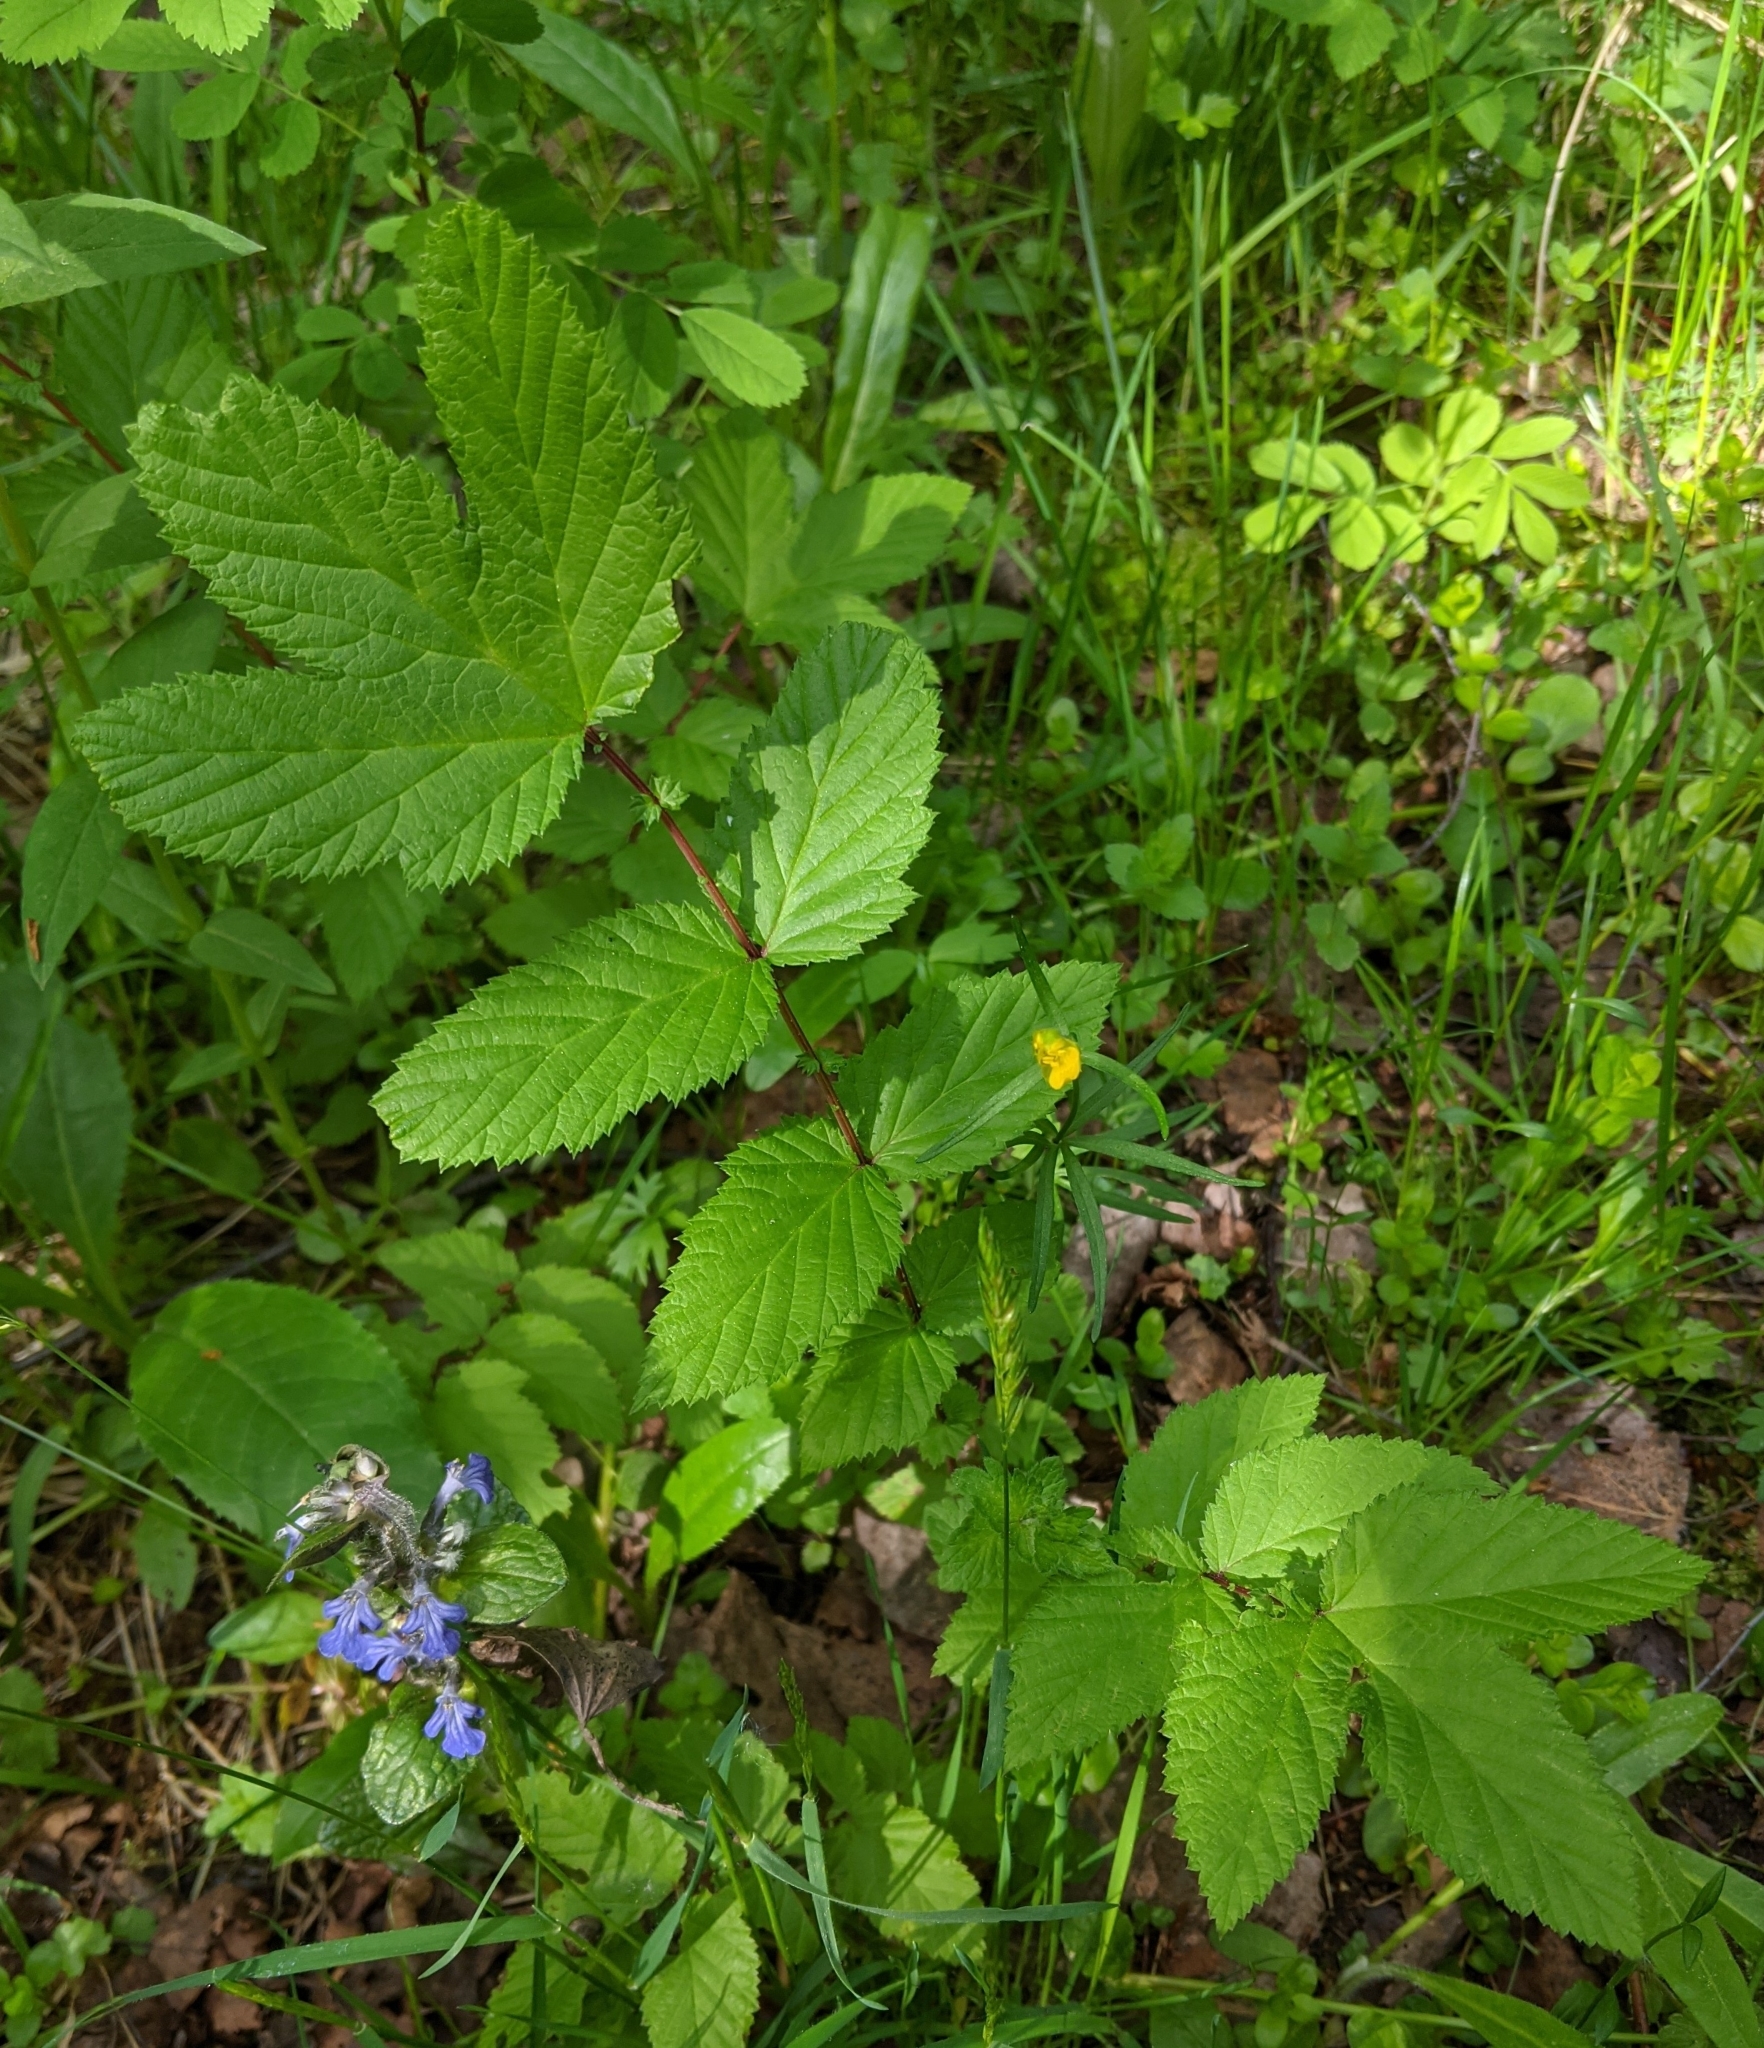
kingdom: Plantae
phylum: Tracheophyta
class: Magnoliopsida
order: Rosales
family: Rosaceae
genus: Filipendula
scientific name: Filipendula ulmaria
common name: Meadowsweet
